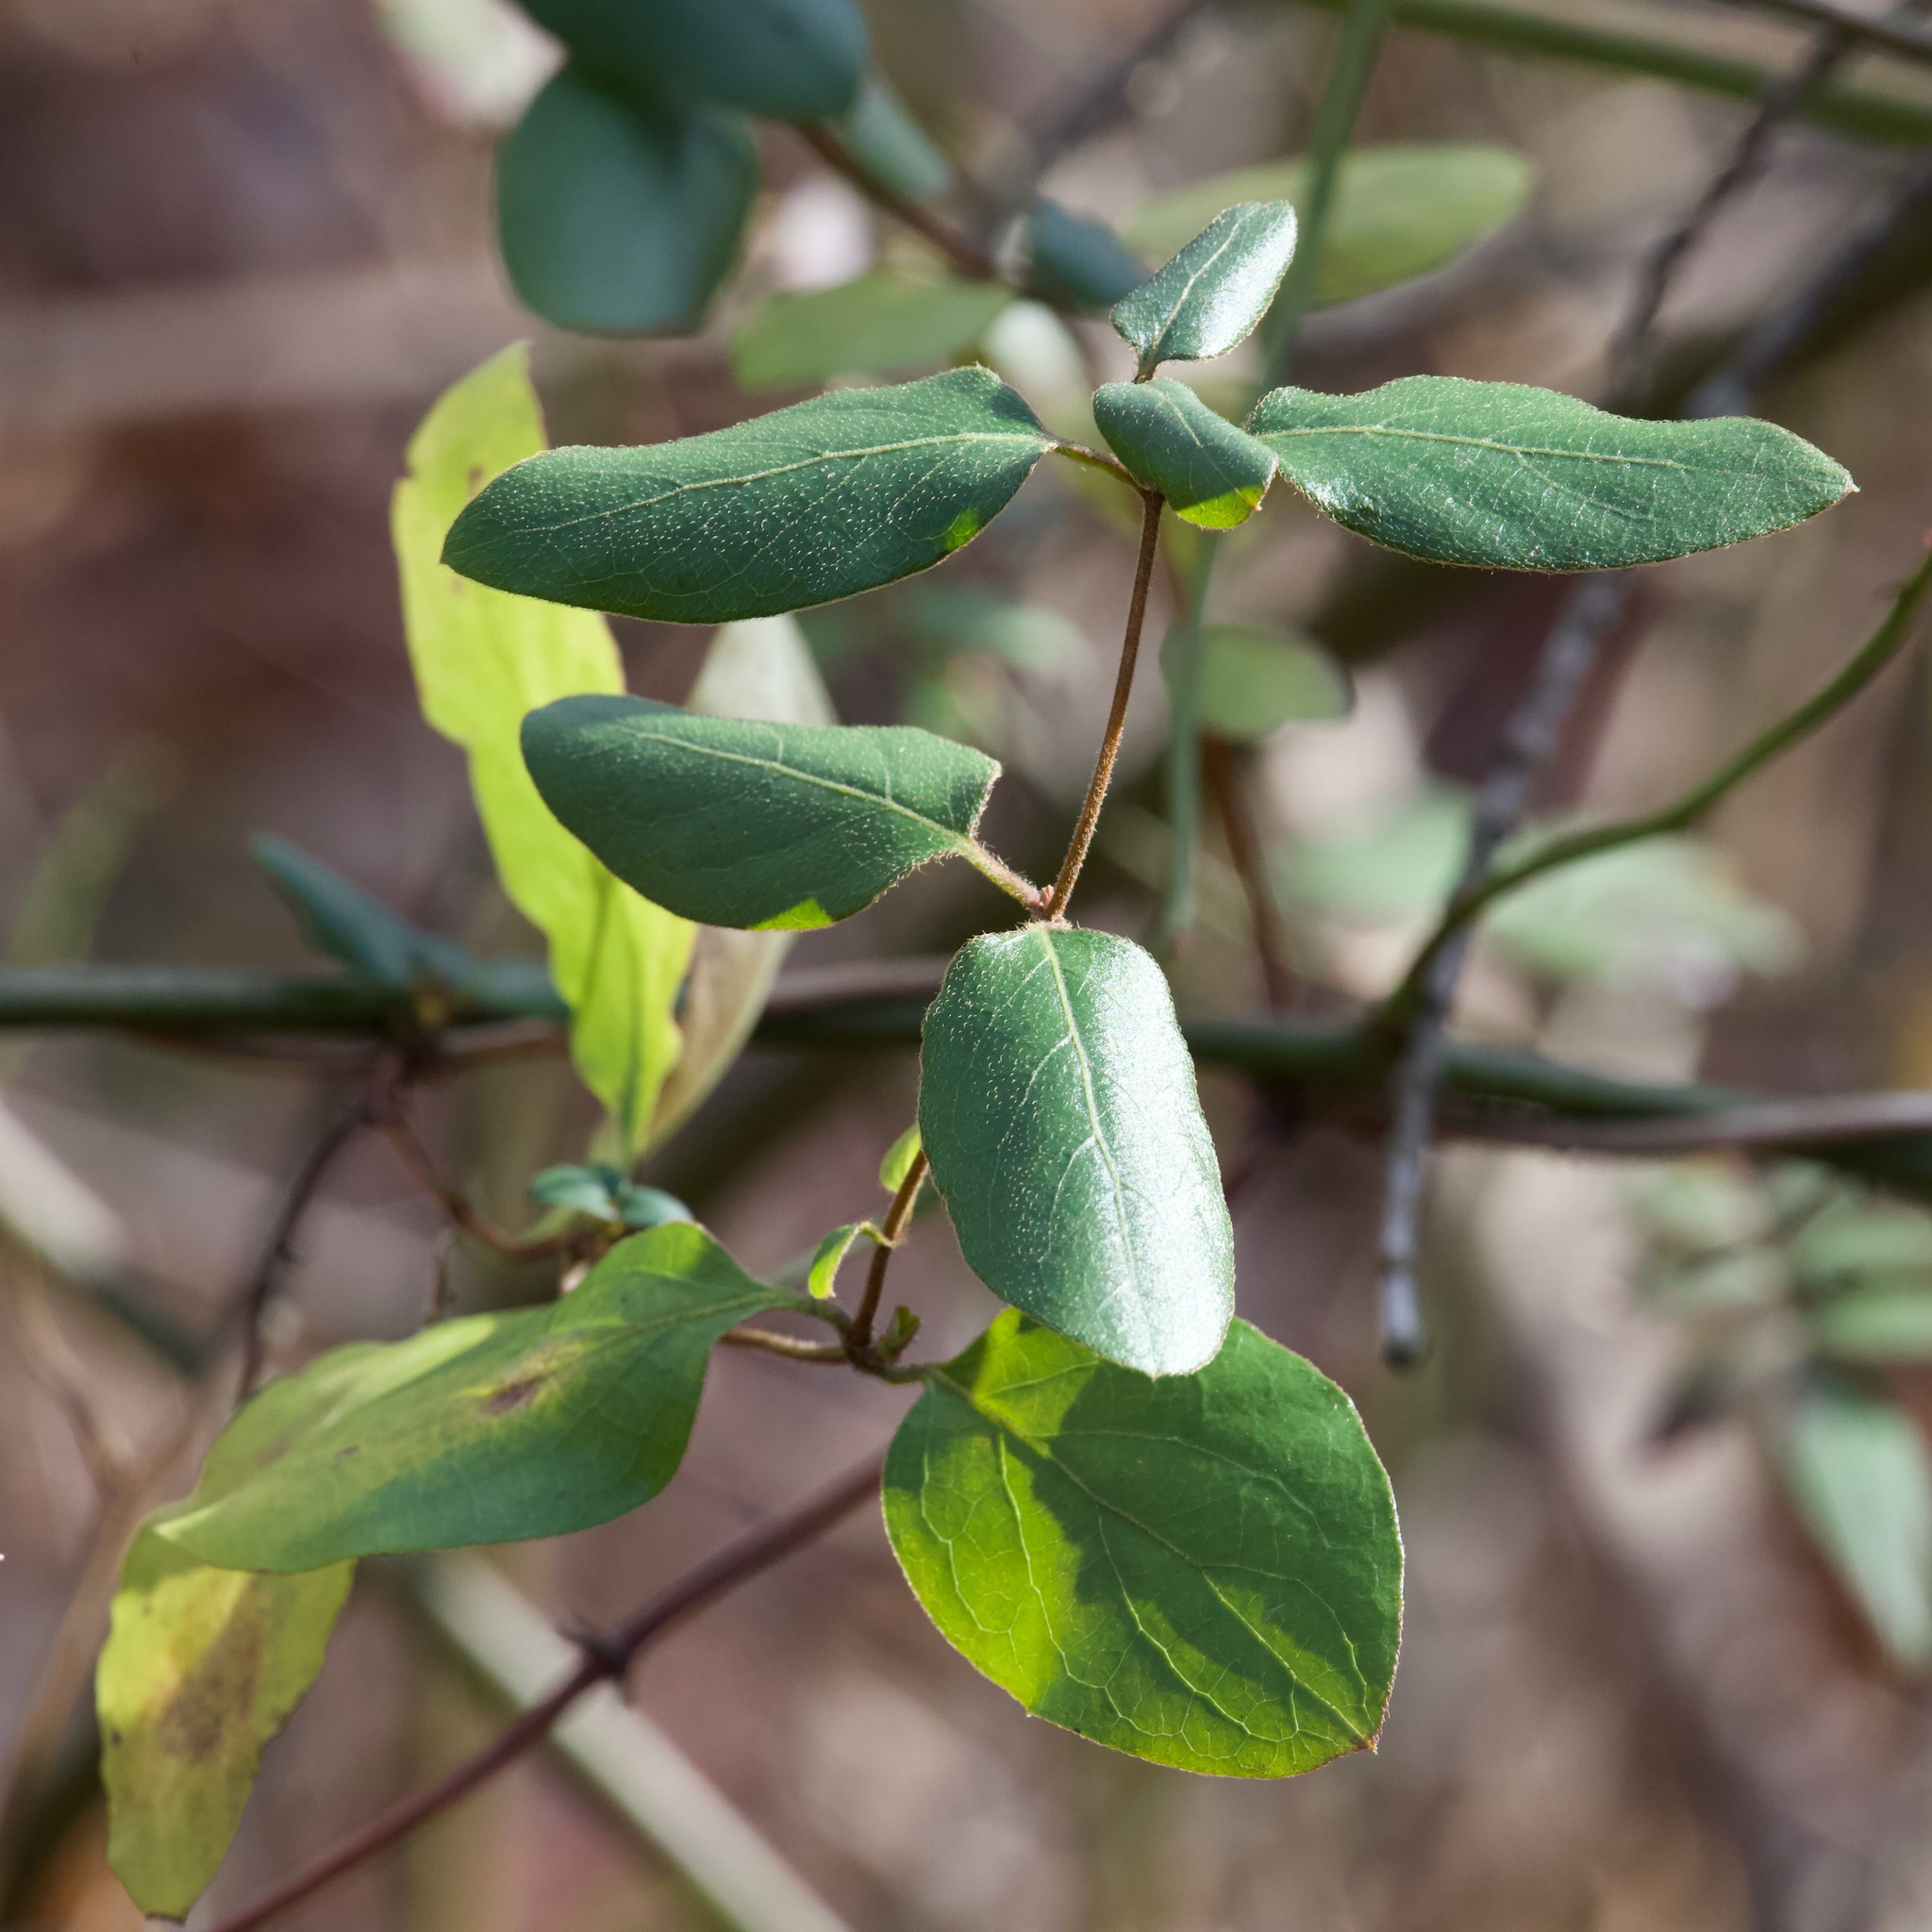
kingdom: Plantae
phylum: Tracheophyta
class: Magnoliopsida
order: Dipsacales
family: Caprifoliaceae
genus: Lonicera
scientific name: Lonicera japonica
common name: Japanese honeysuckle
